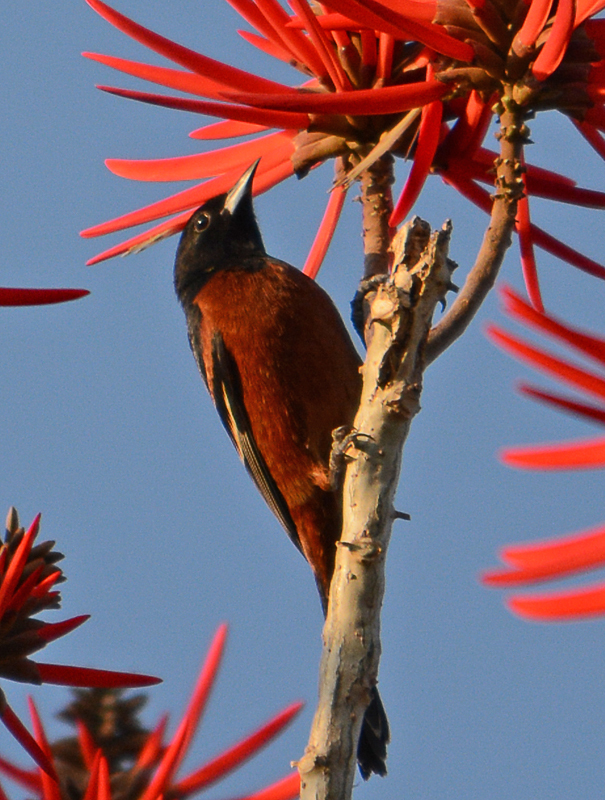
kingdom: Animalia
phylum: Chordata
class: Aves
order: Passeriformes
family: Icteridae
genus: Icterus
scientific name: Icterus spurius
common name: Orchard oriole
